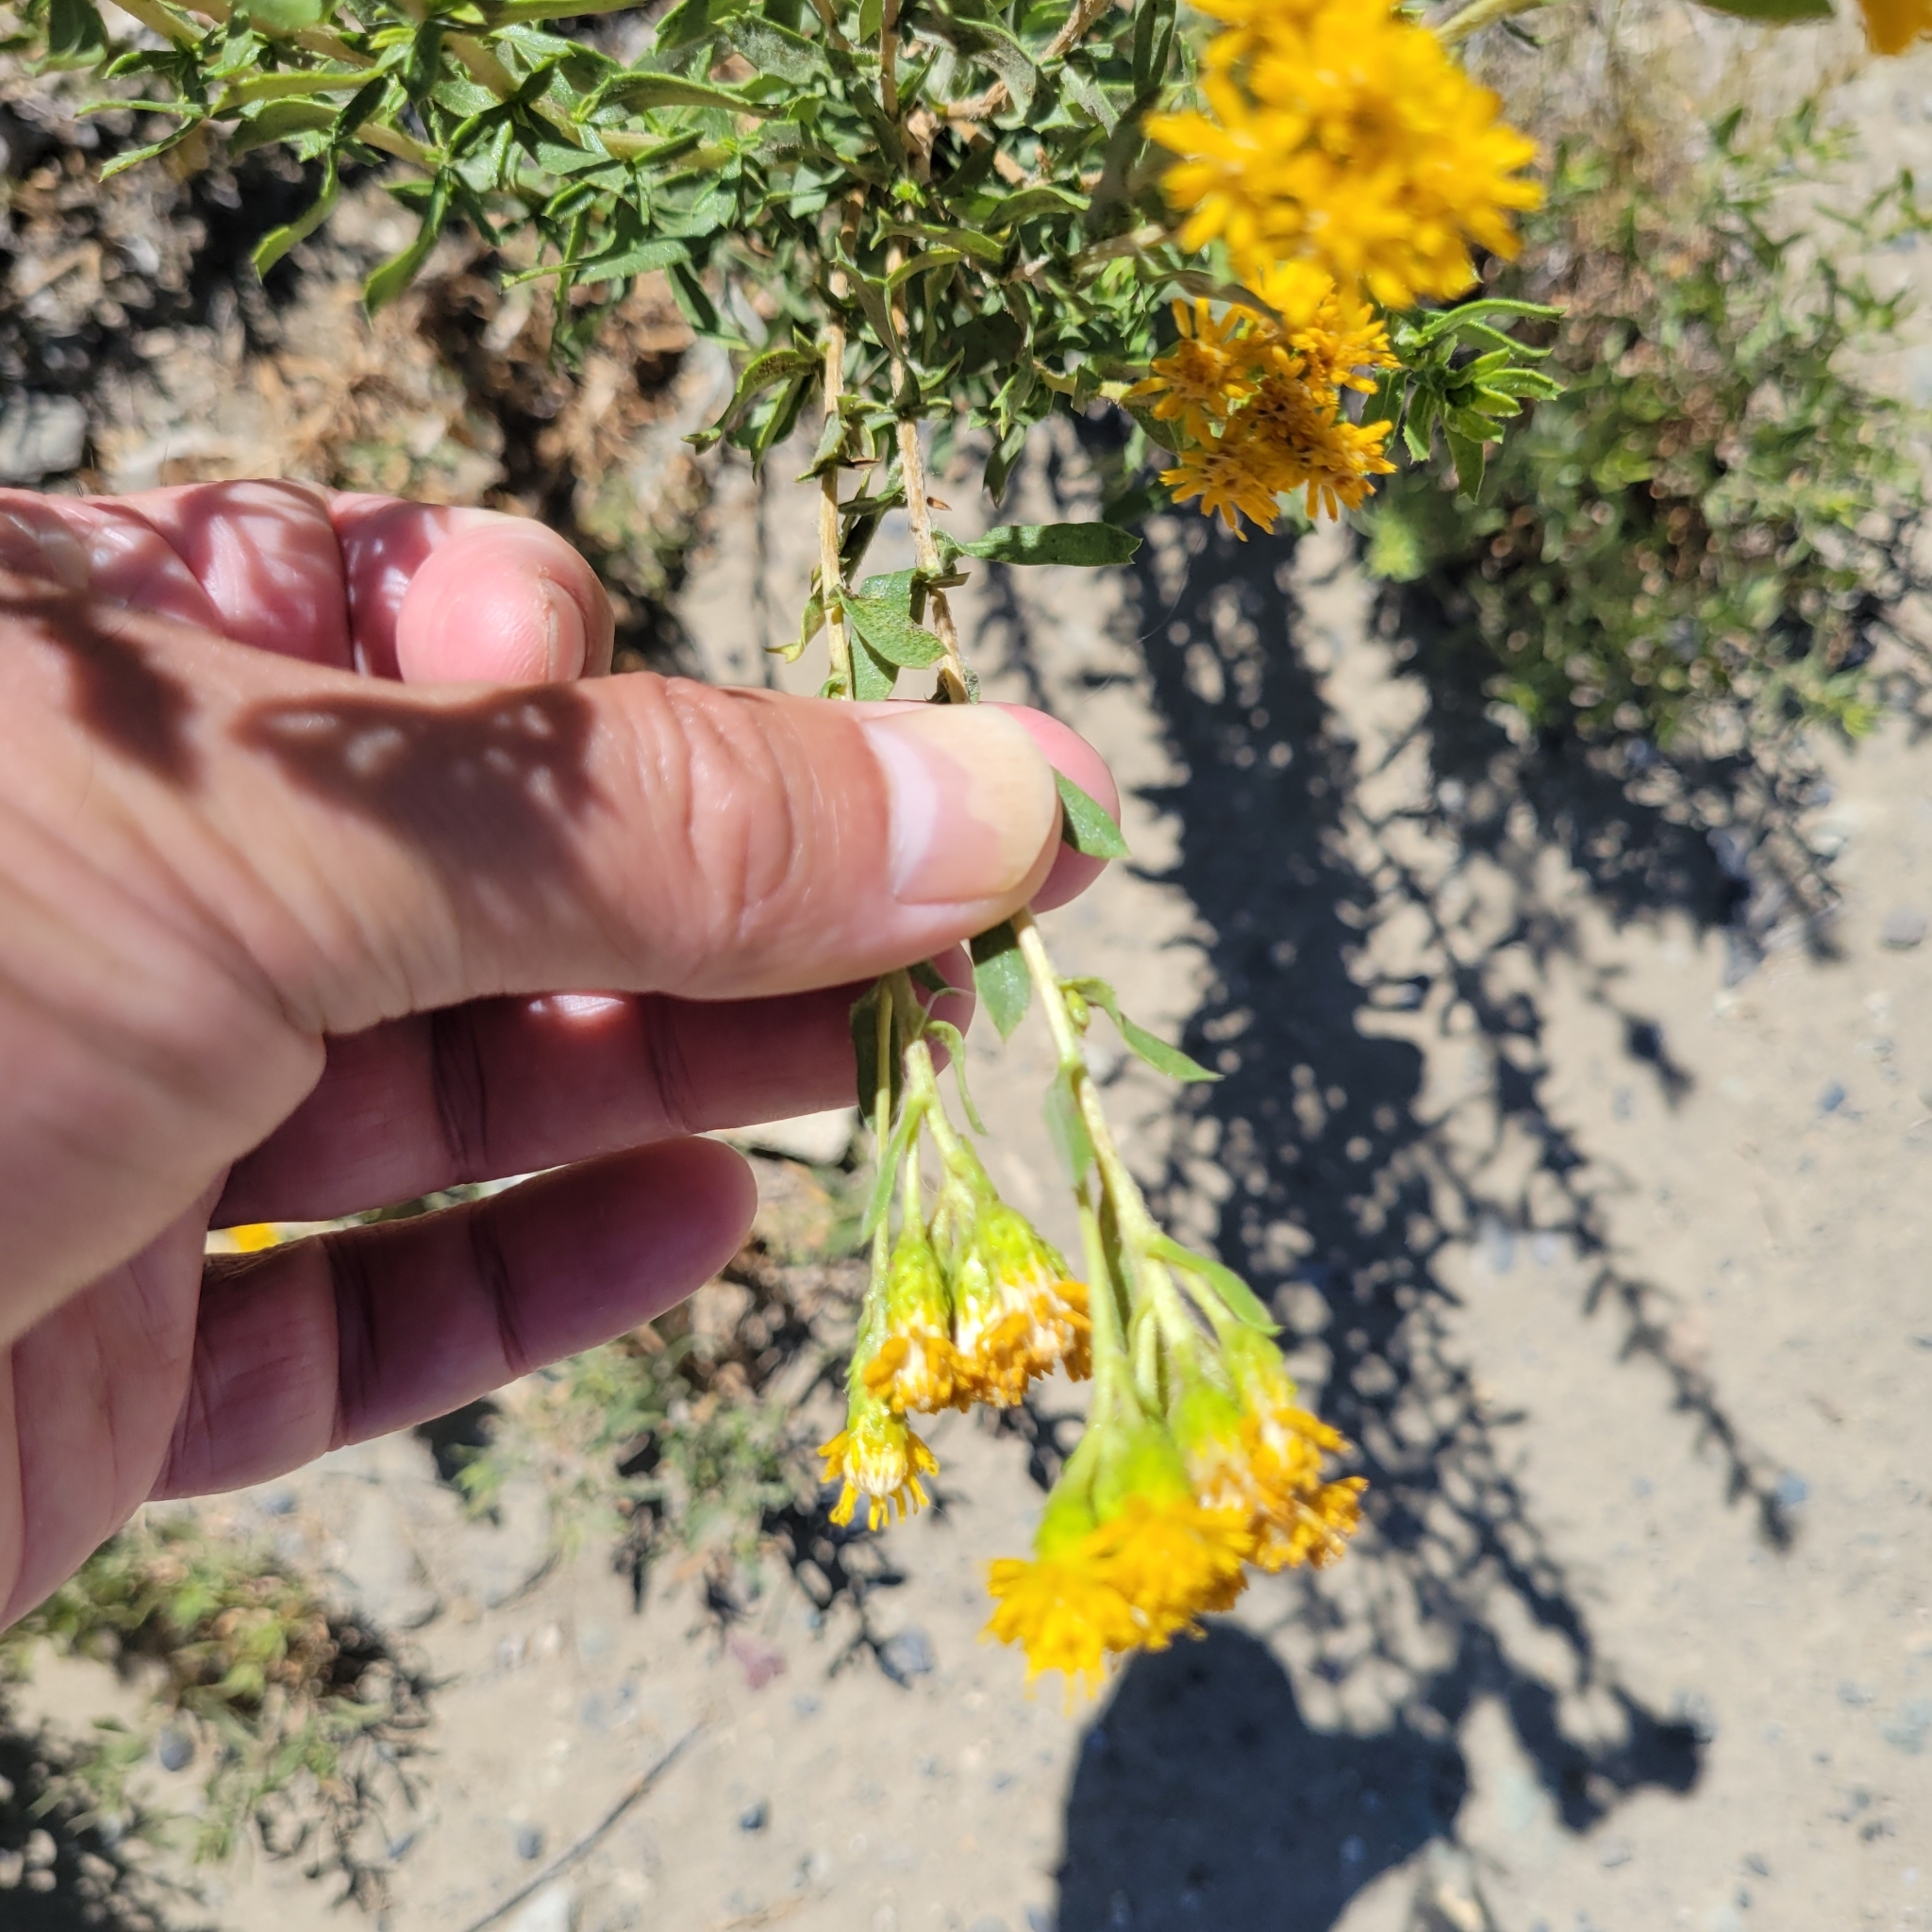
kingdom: Plantae
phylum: Tracheophyta
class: Magnoliopsida
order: Asterales
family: Asteraceae
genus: Isocoma
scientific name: Isocoma menziesii
